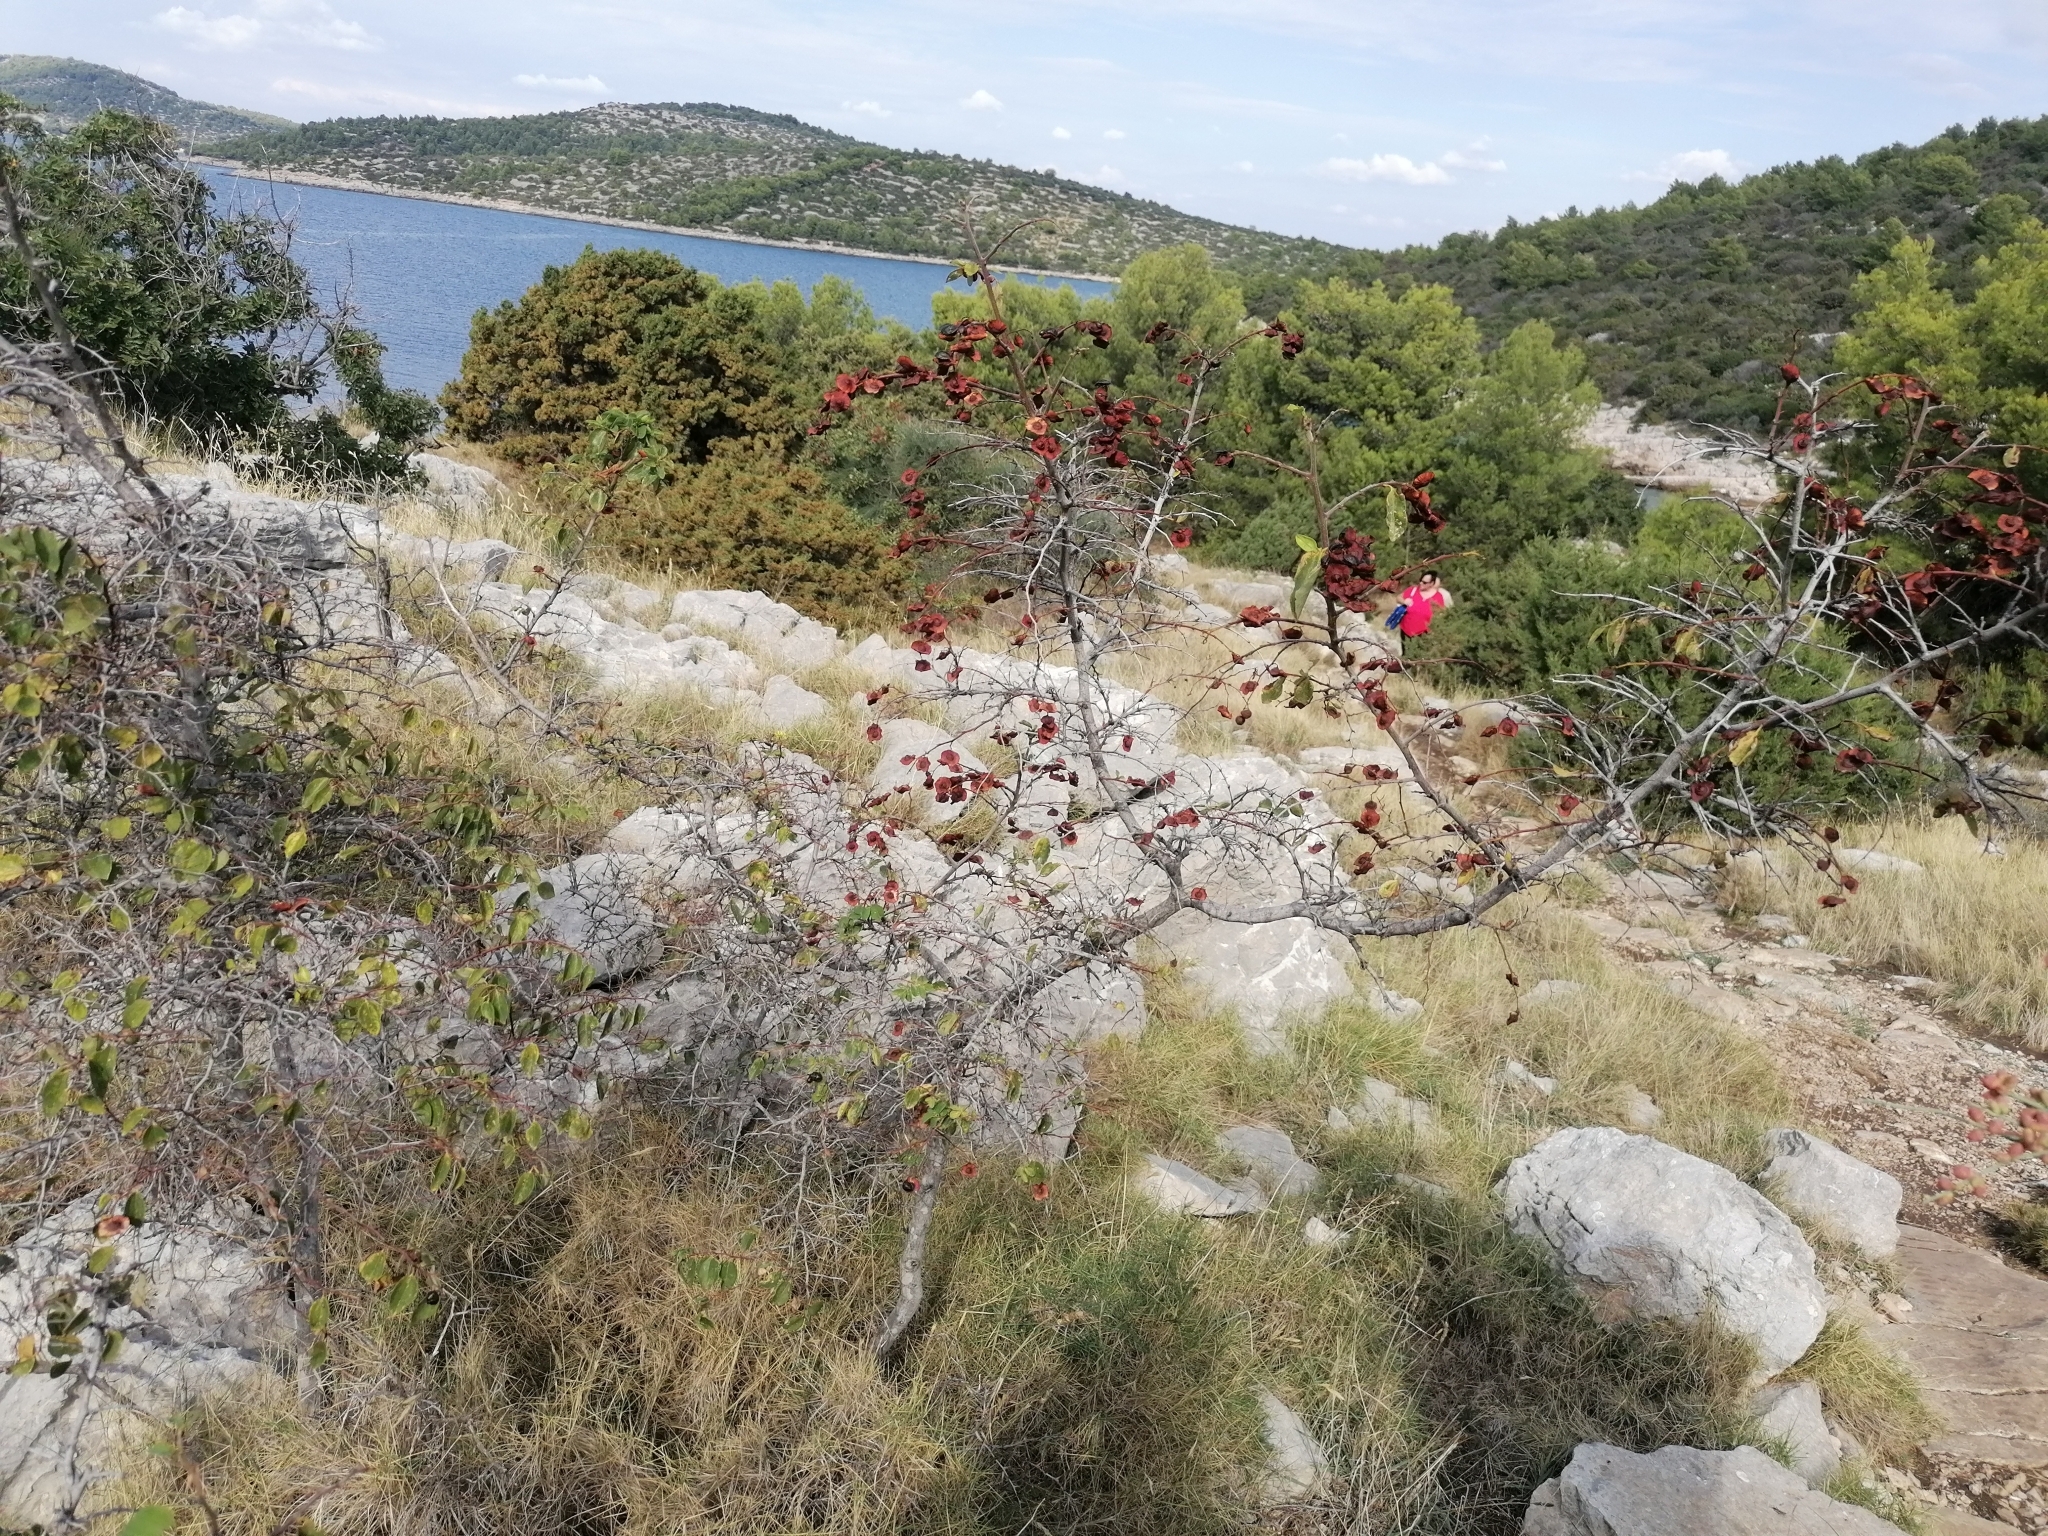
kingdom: Plantae
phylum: Tracheophyta
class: Magnoliopsida
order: Rosales
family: Rhamnaceae
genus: Paliurus
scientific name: Paliurus spina-christi
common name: Jeruselem thorn
